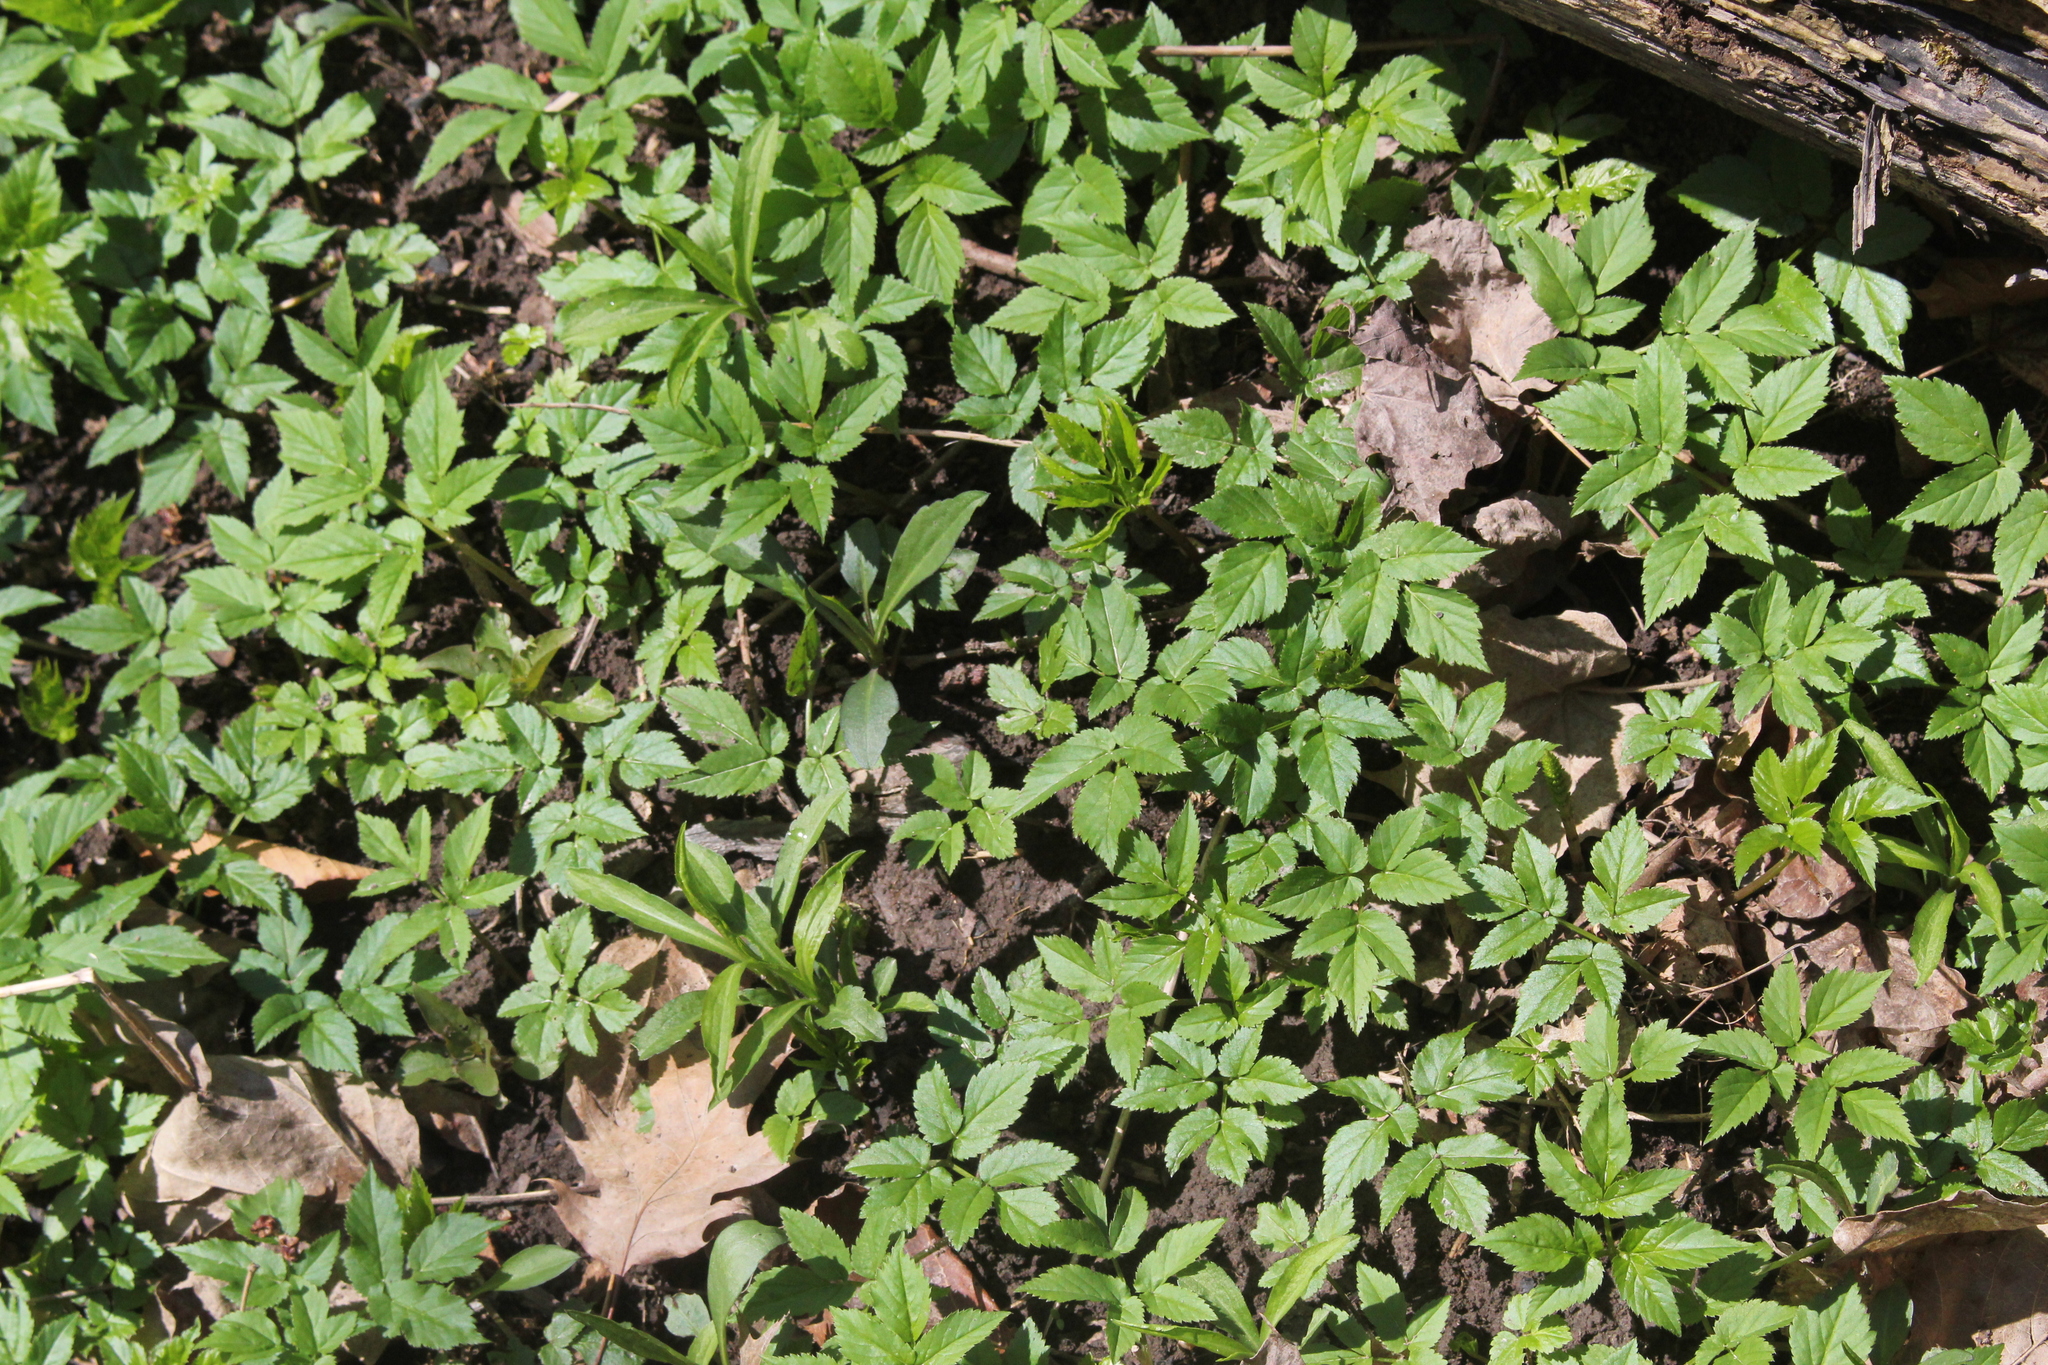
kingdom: Plantae
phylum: Tracheophyta
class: Magnoliopsida
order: Apiales
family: Apiaceae
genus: Aegopodium
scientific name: Aegopodium podagraria
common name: Ground-elder
